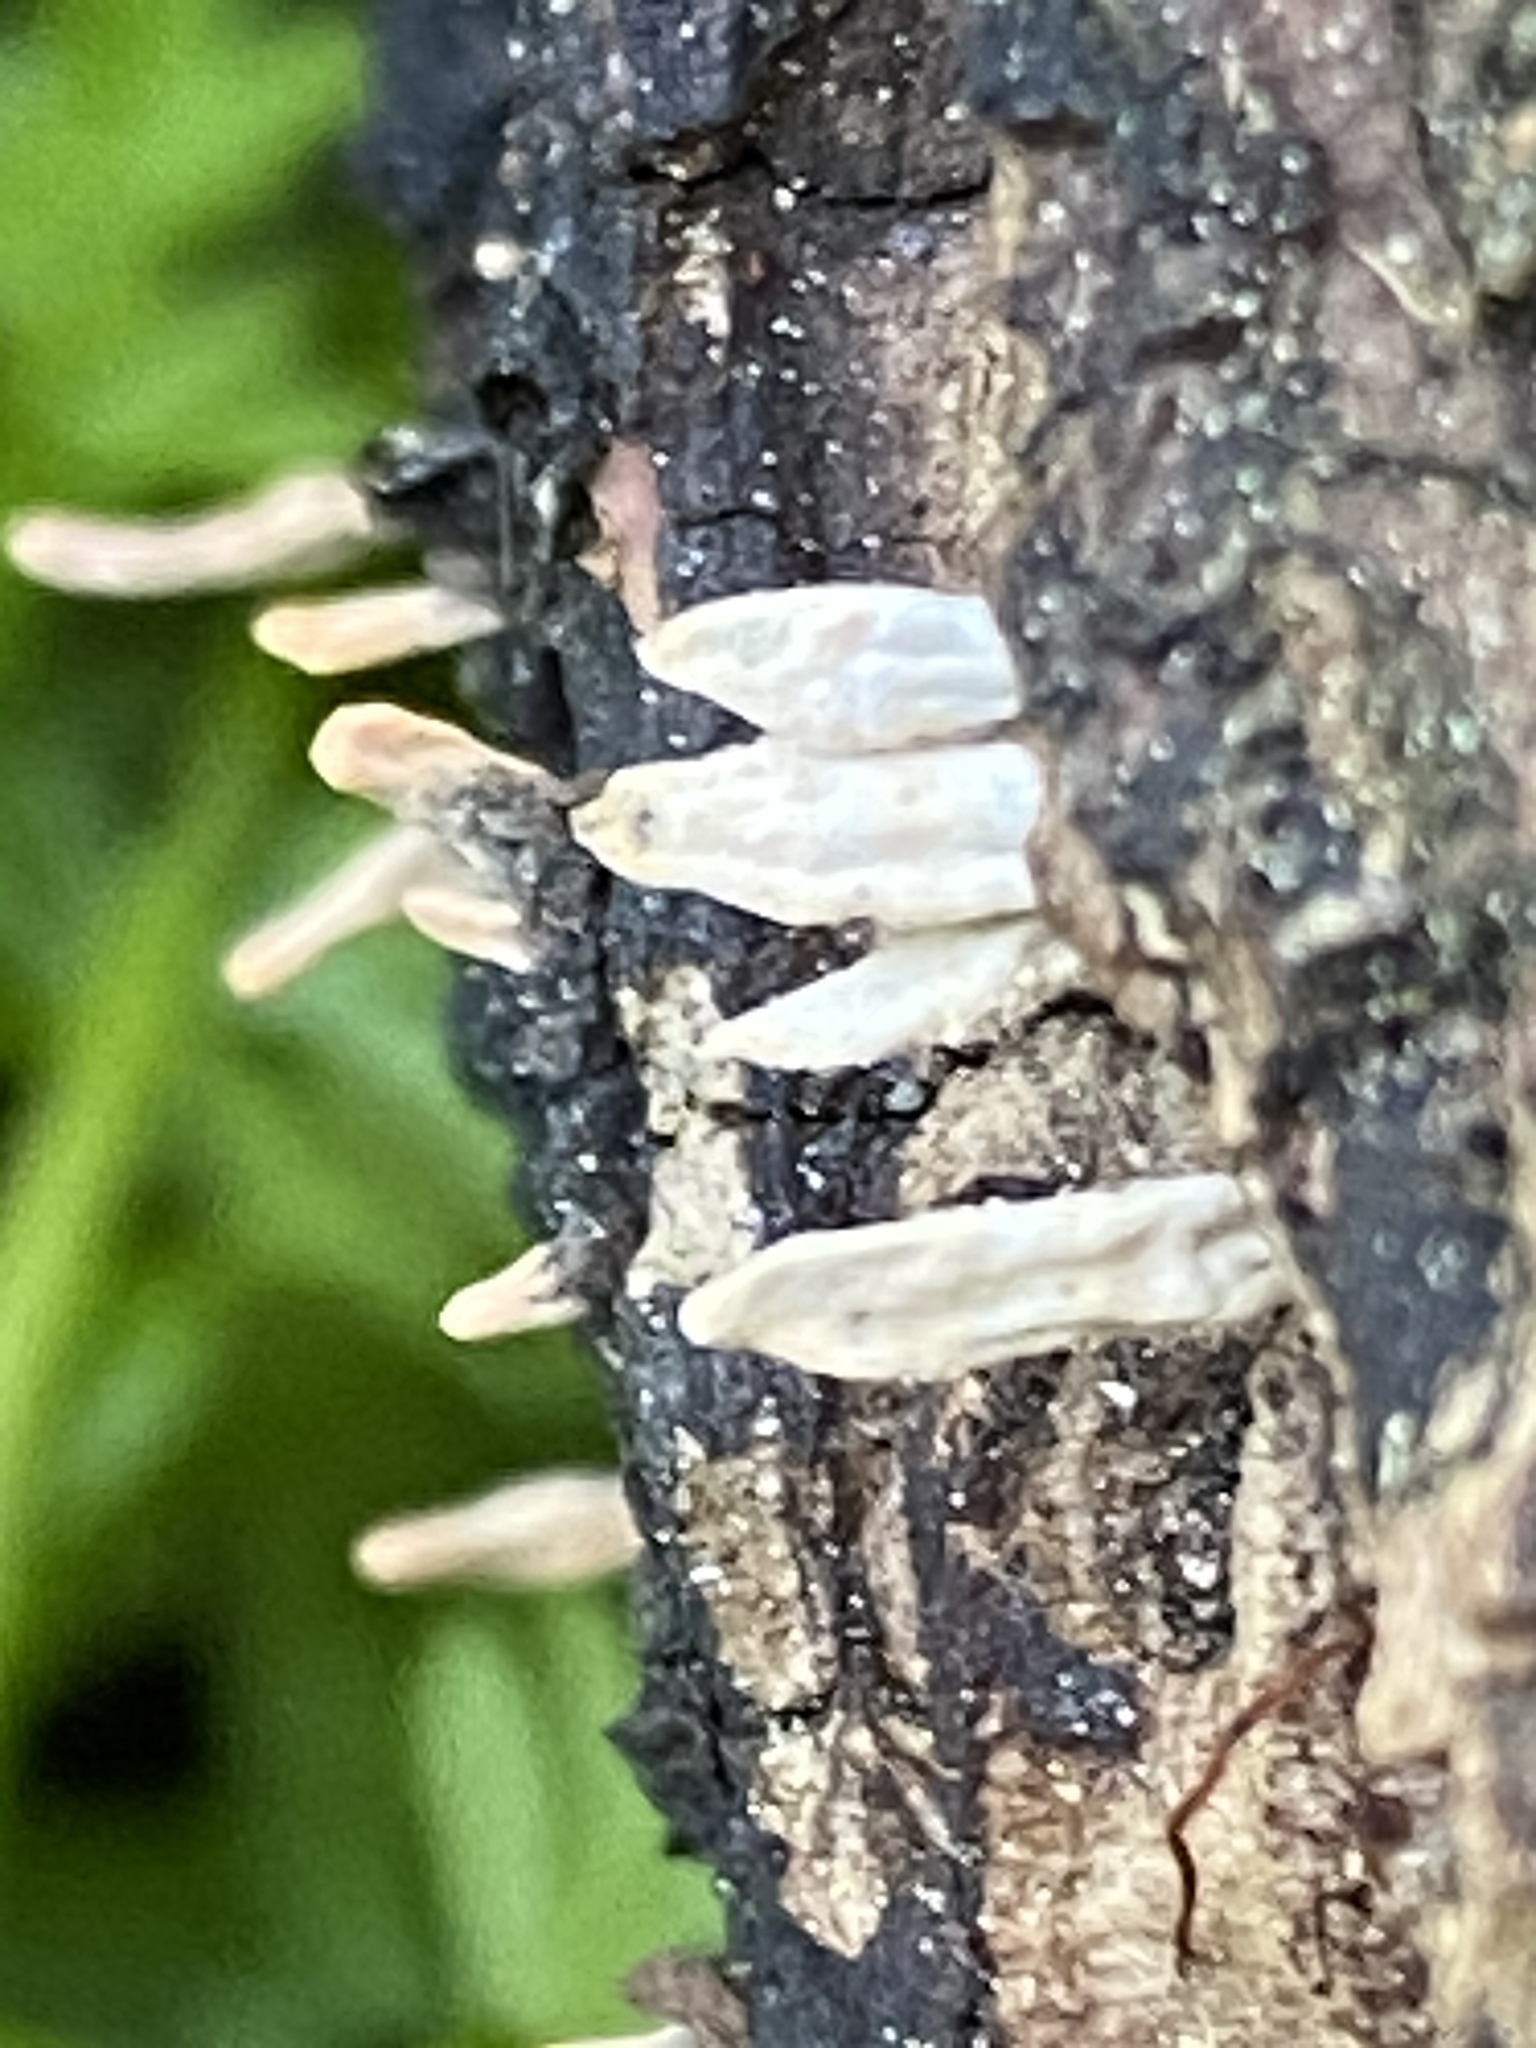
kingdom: Fungi
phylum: Ascomycota
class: Sordariomycetes
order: Xylariales
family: Xylariaceae
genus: Xylaria
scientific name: Xylaria hypoxylon
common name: Candle-snuff fungus
